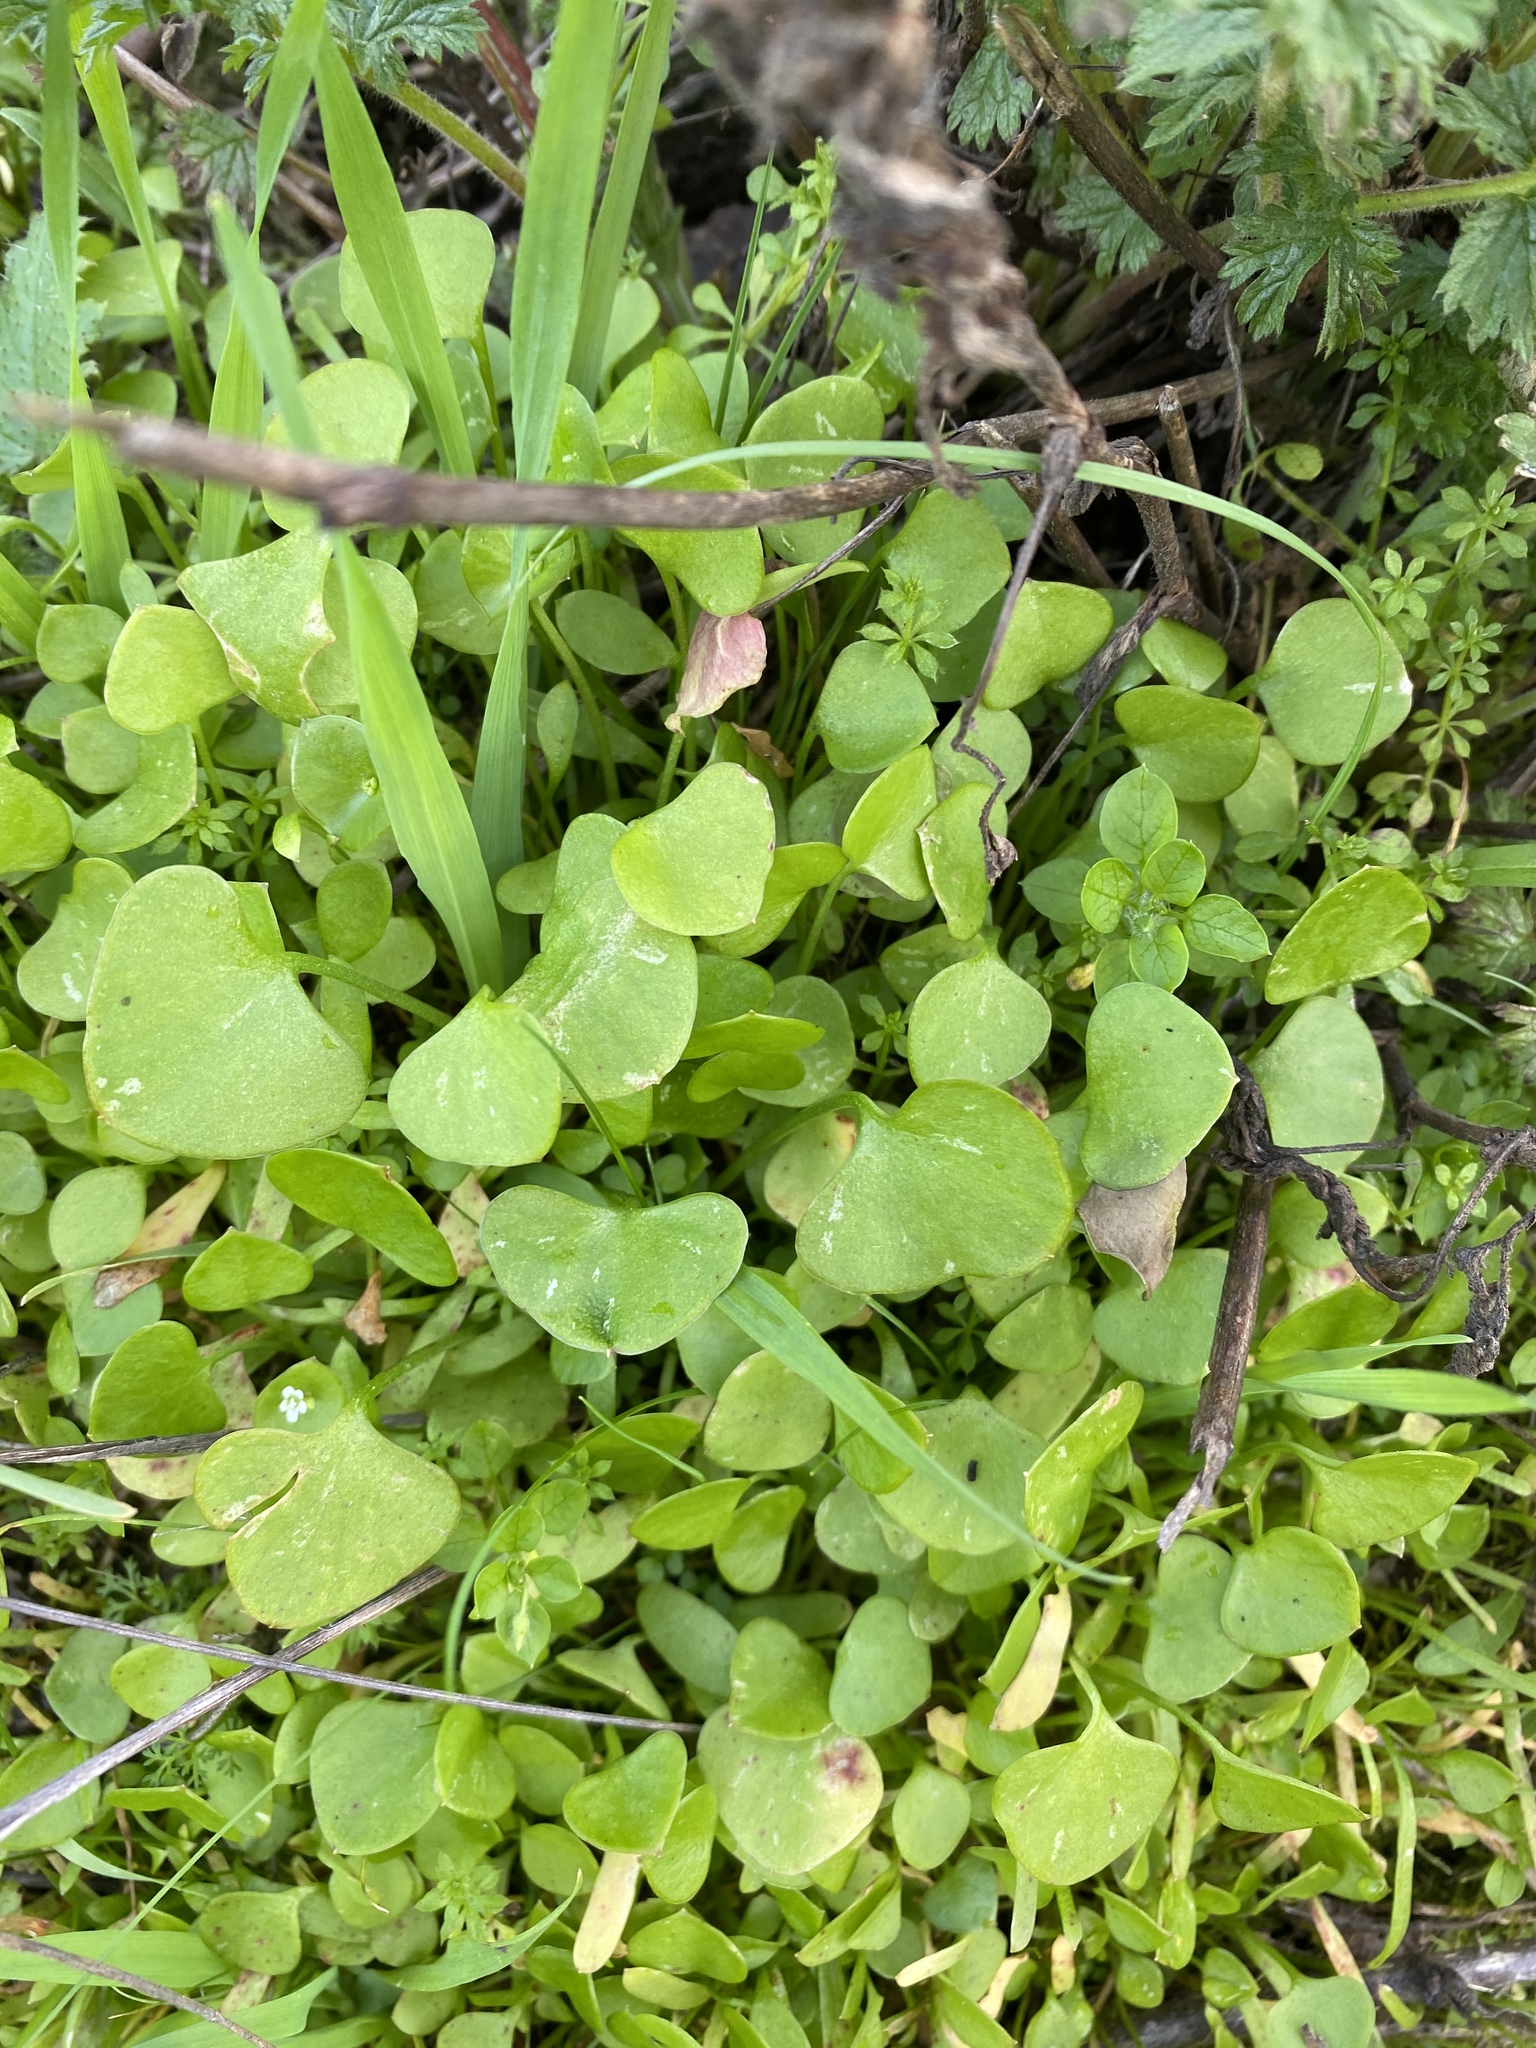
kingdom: Plantae
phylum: Tracheophyta
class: Magnoliopsida
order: Caryophyllales
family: Montiaceae
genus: Claytonia
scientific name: Claytonia perfoliata
